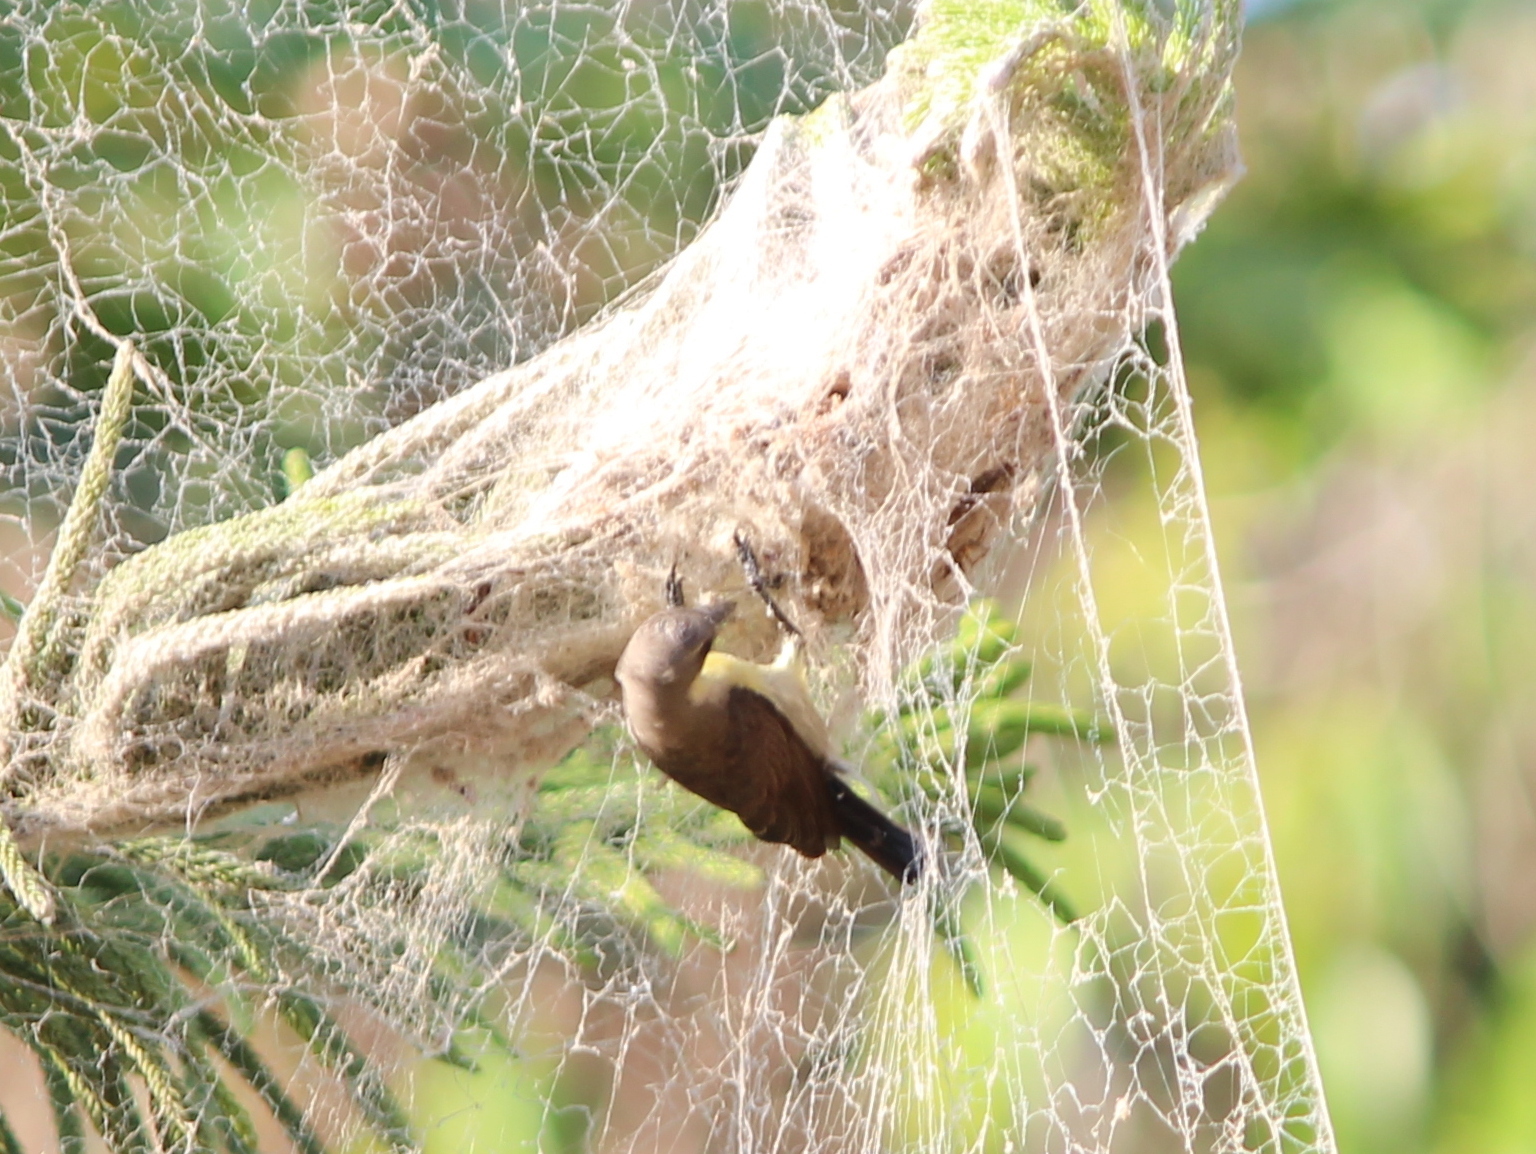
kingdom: Animalia
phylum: Chordata
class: Aves
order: Passeriformes
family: Nectariniidae
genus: Cinnyris
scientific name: Cinnyris asiaticus
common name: Purple sunbird
